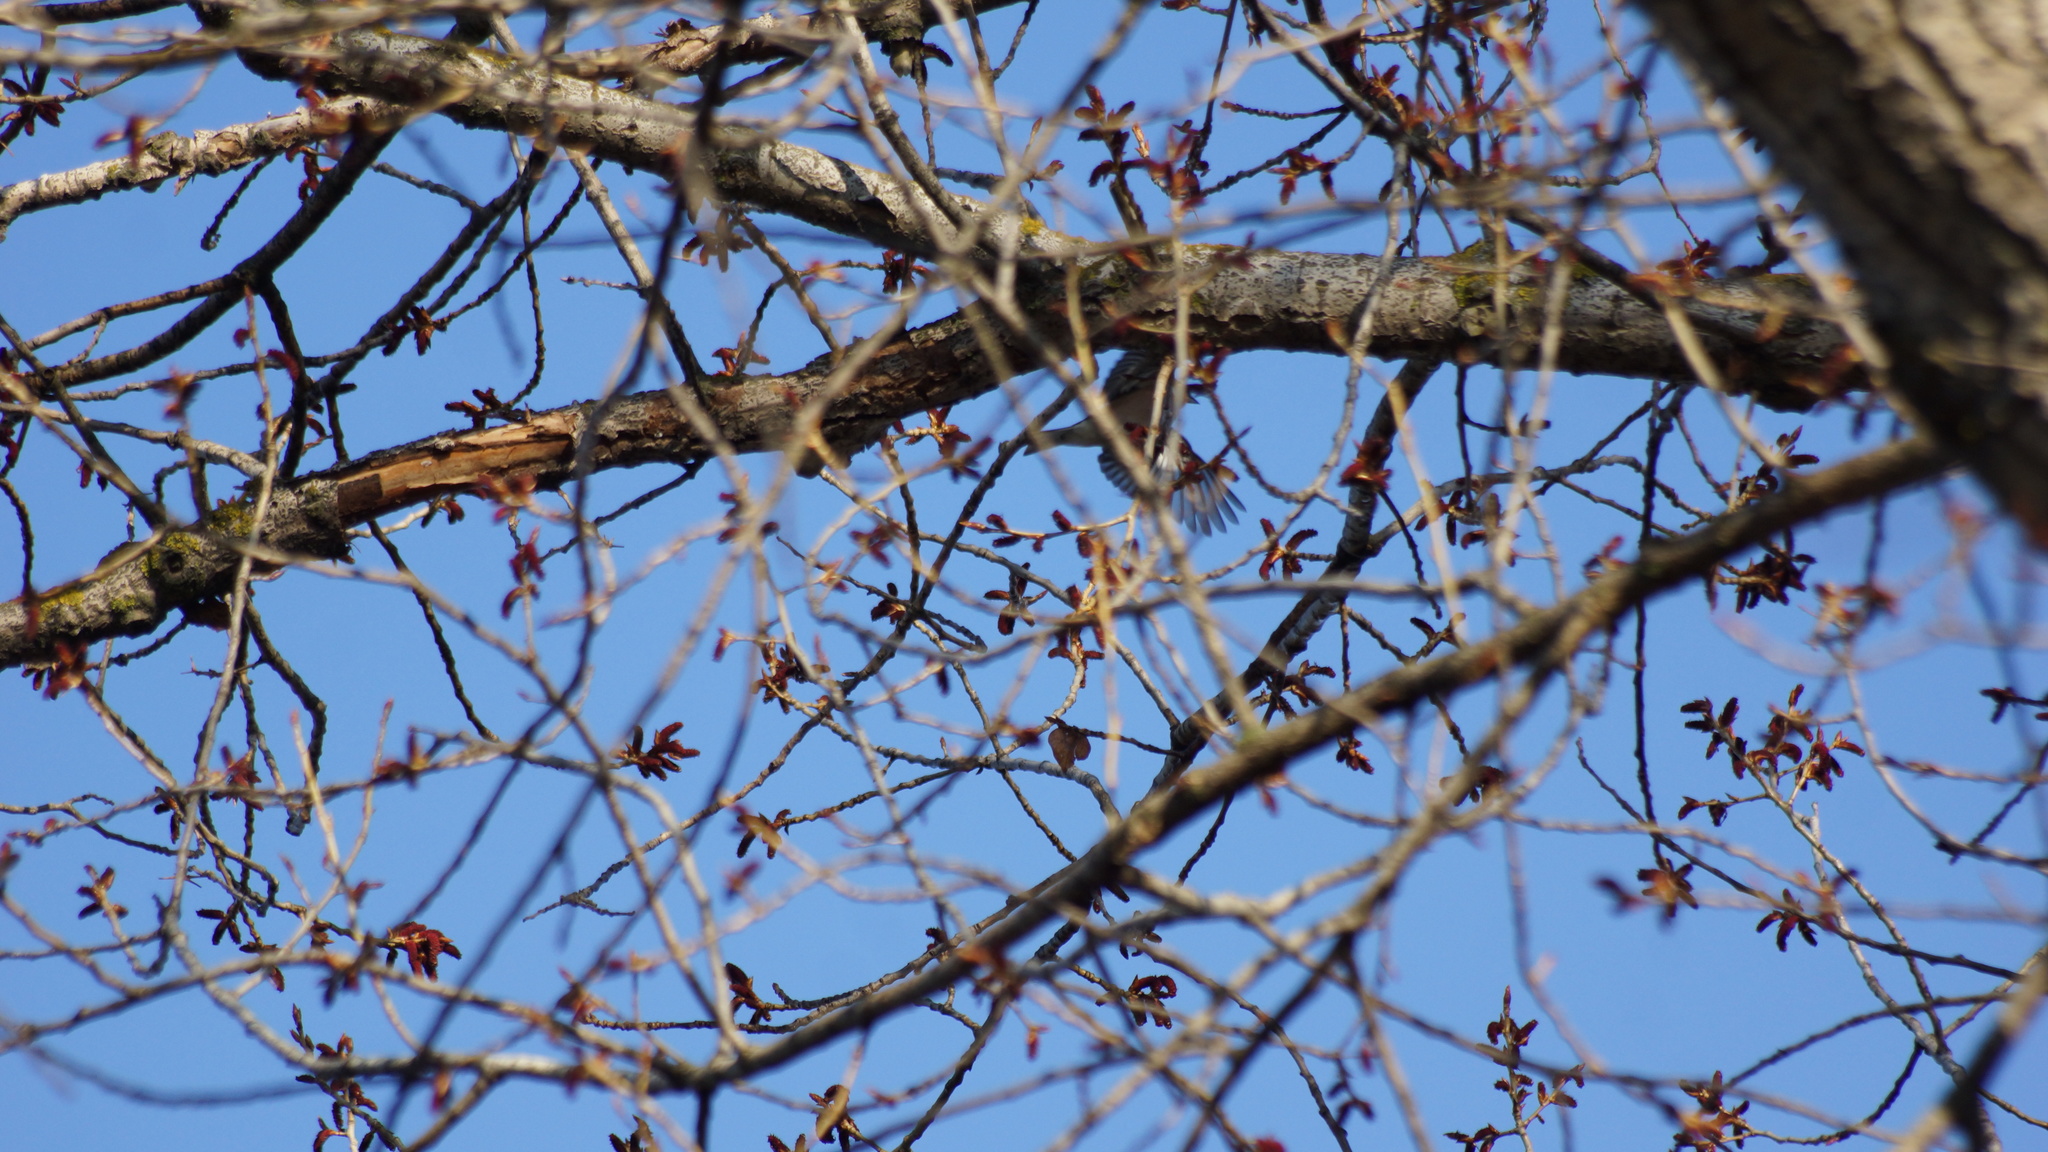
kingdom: Animalia
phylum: Chordata
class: Aves
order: Passeriformes
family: Fringillidae
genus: Fringilla
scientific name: Fringilla coelebs
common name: Common chaffinch
